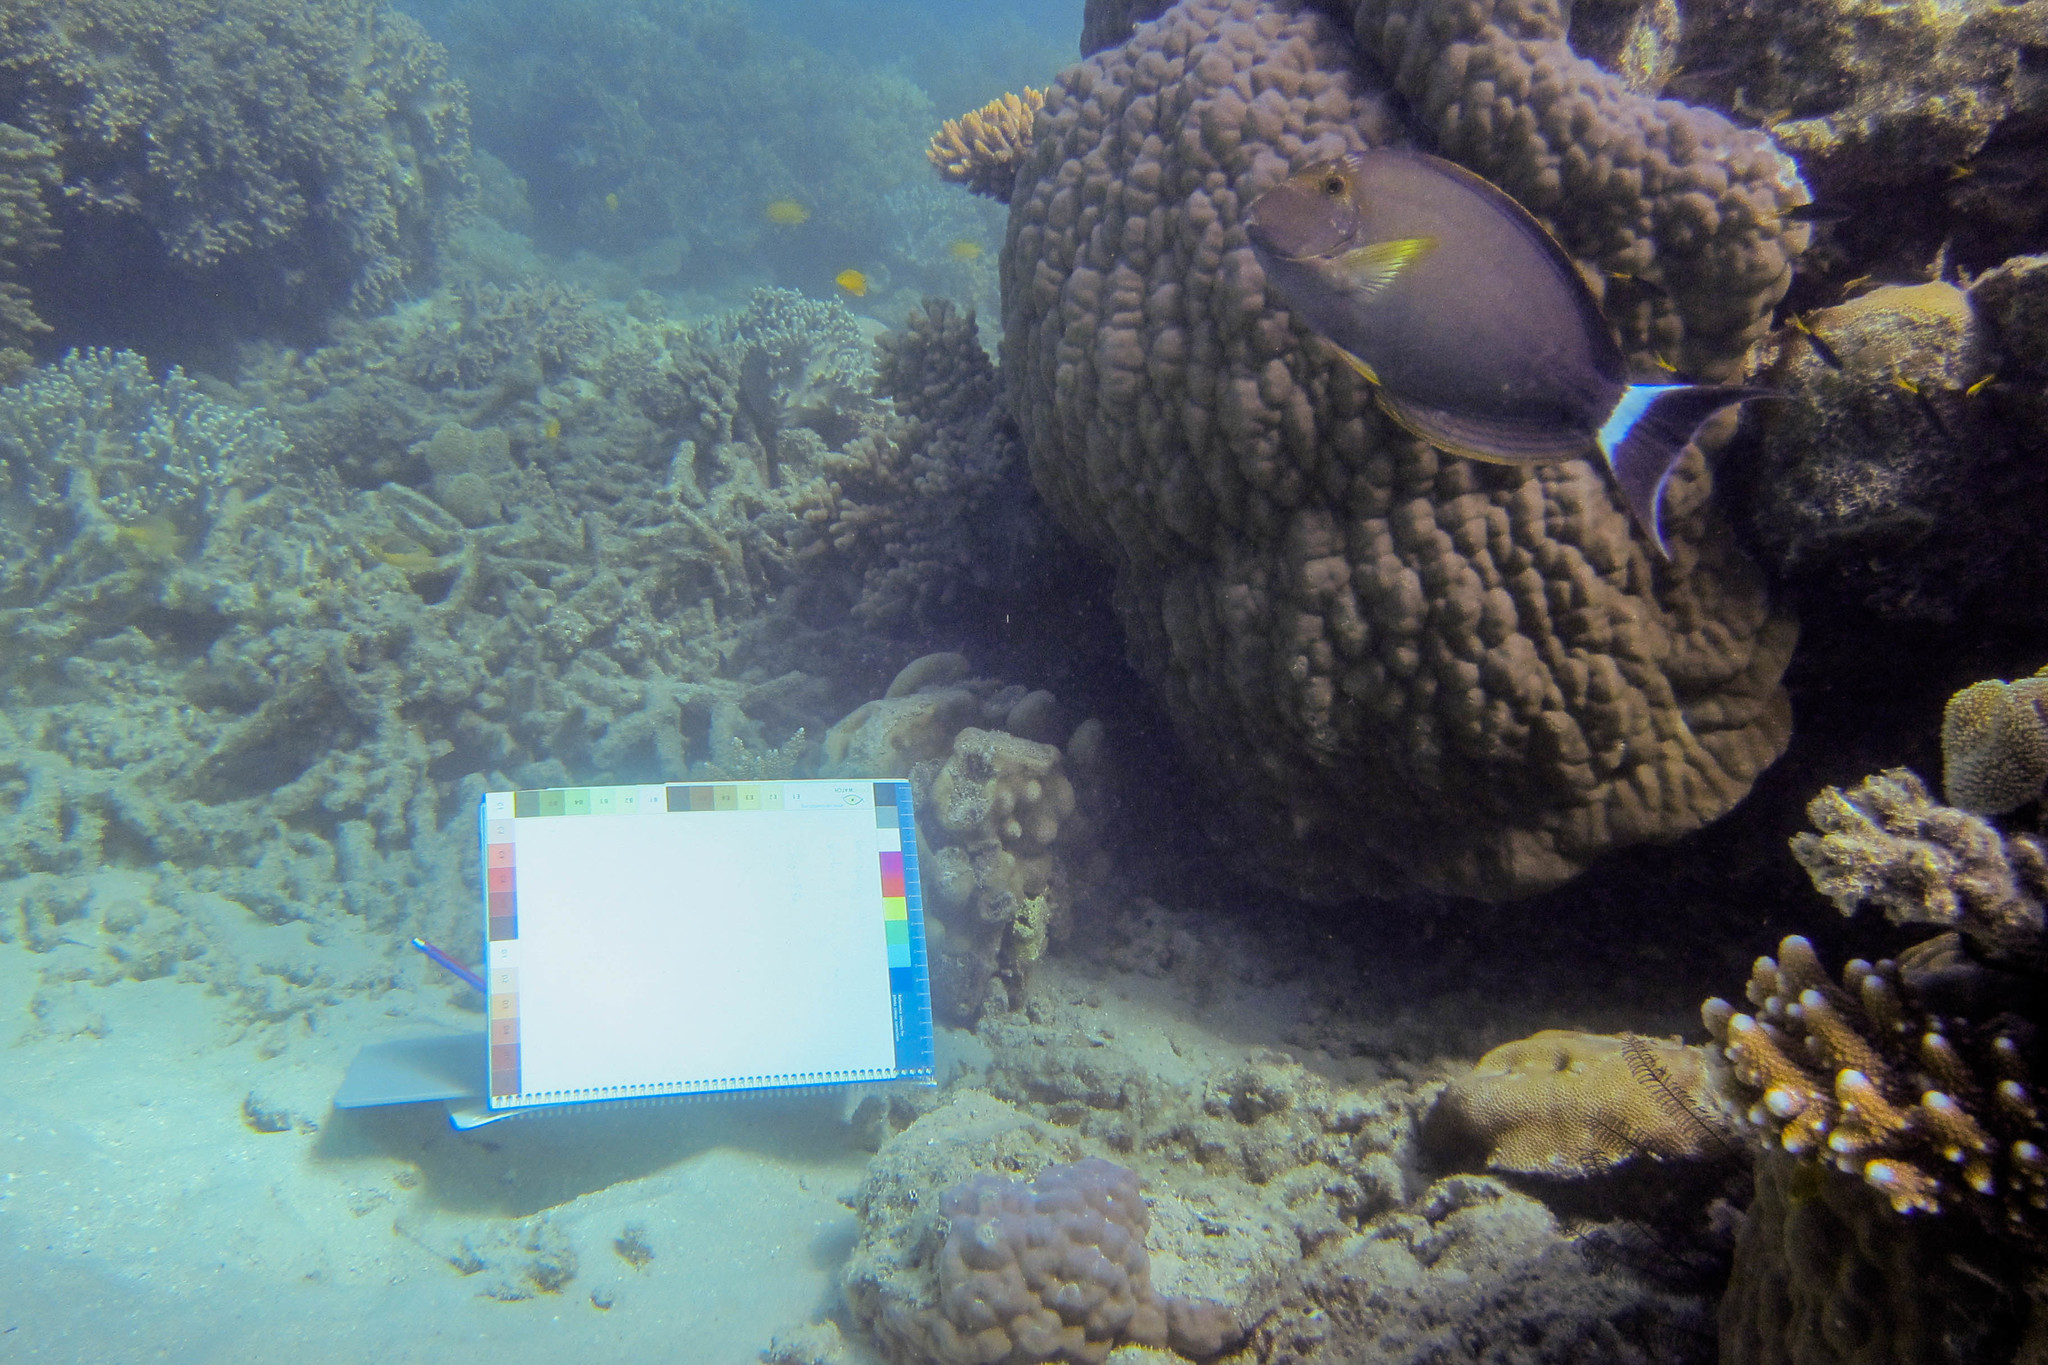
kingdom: Animalia
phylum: Chordata
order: Perciformes
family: Acanthuridae
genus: Acanthurus
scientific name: Acanthurus xanthopterus
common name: Cuvier's surgeonfish
